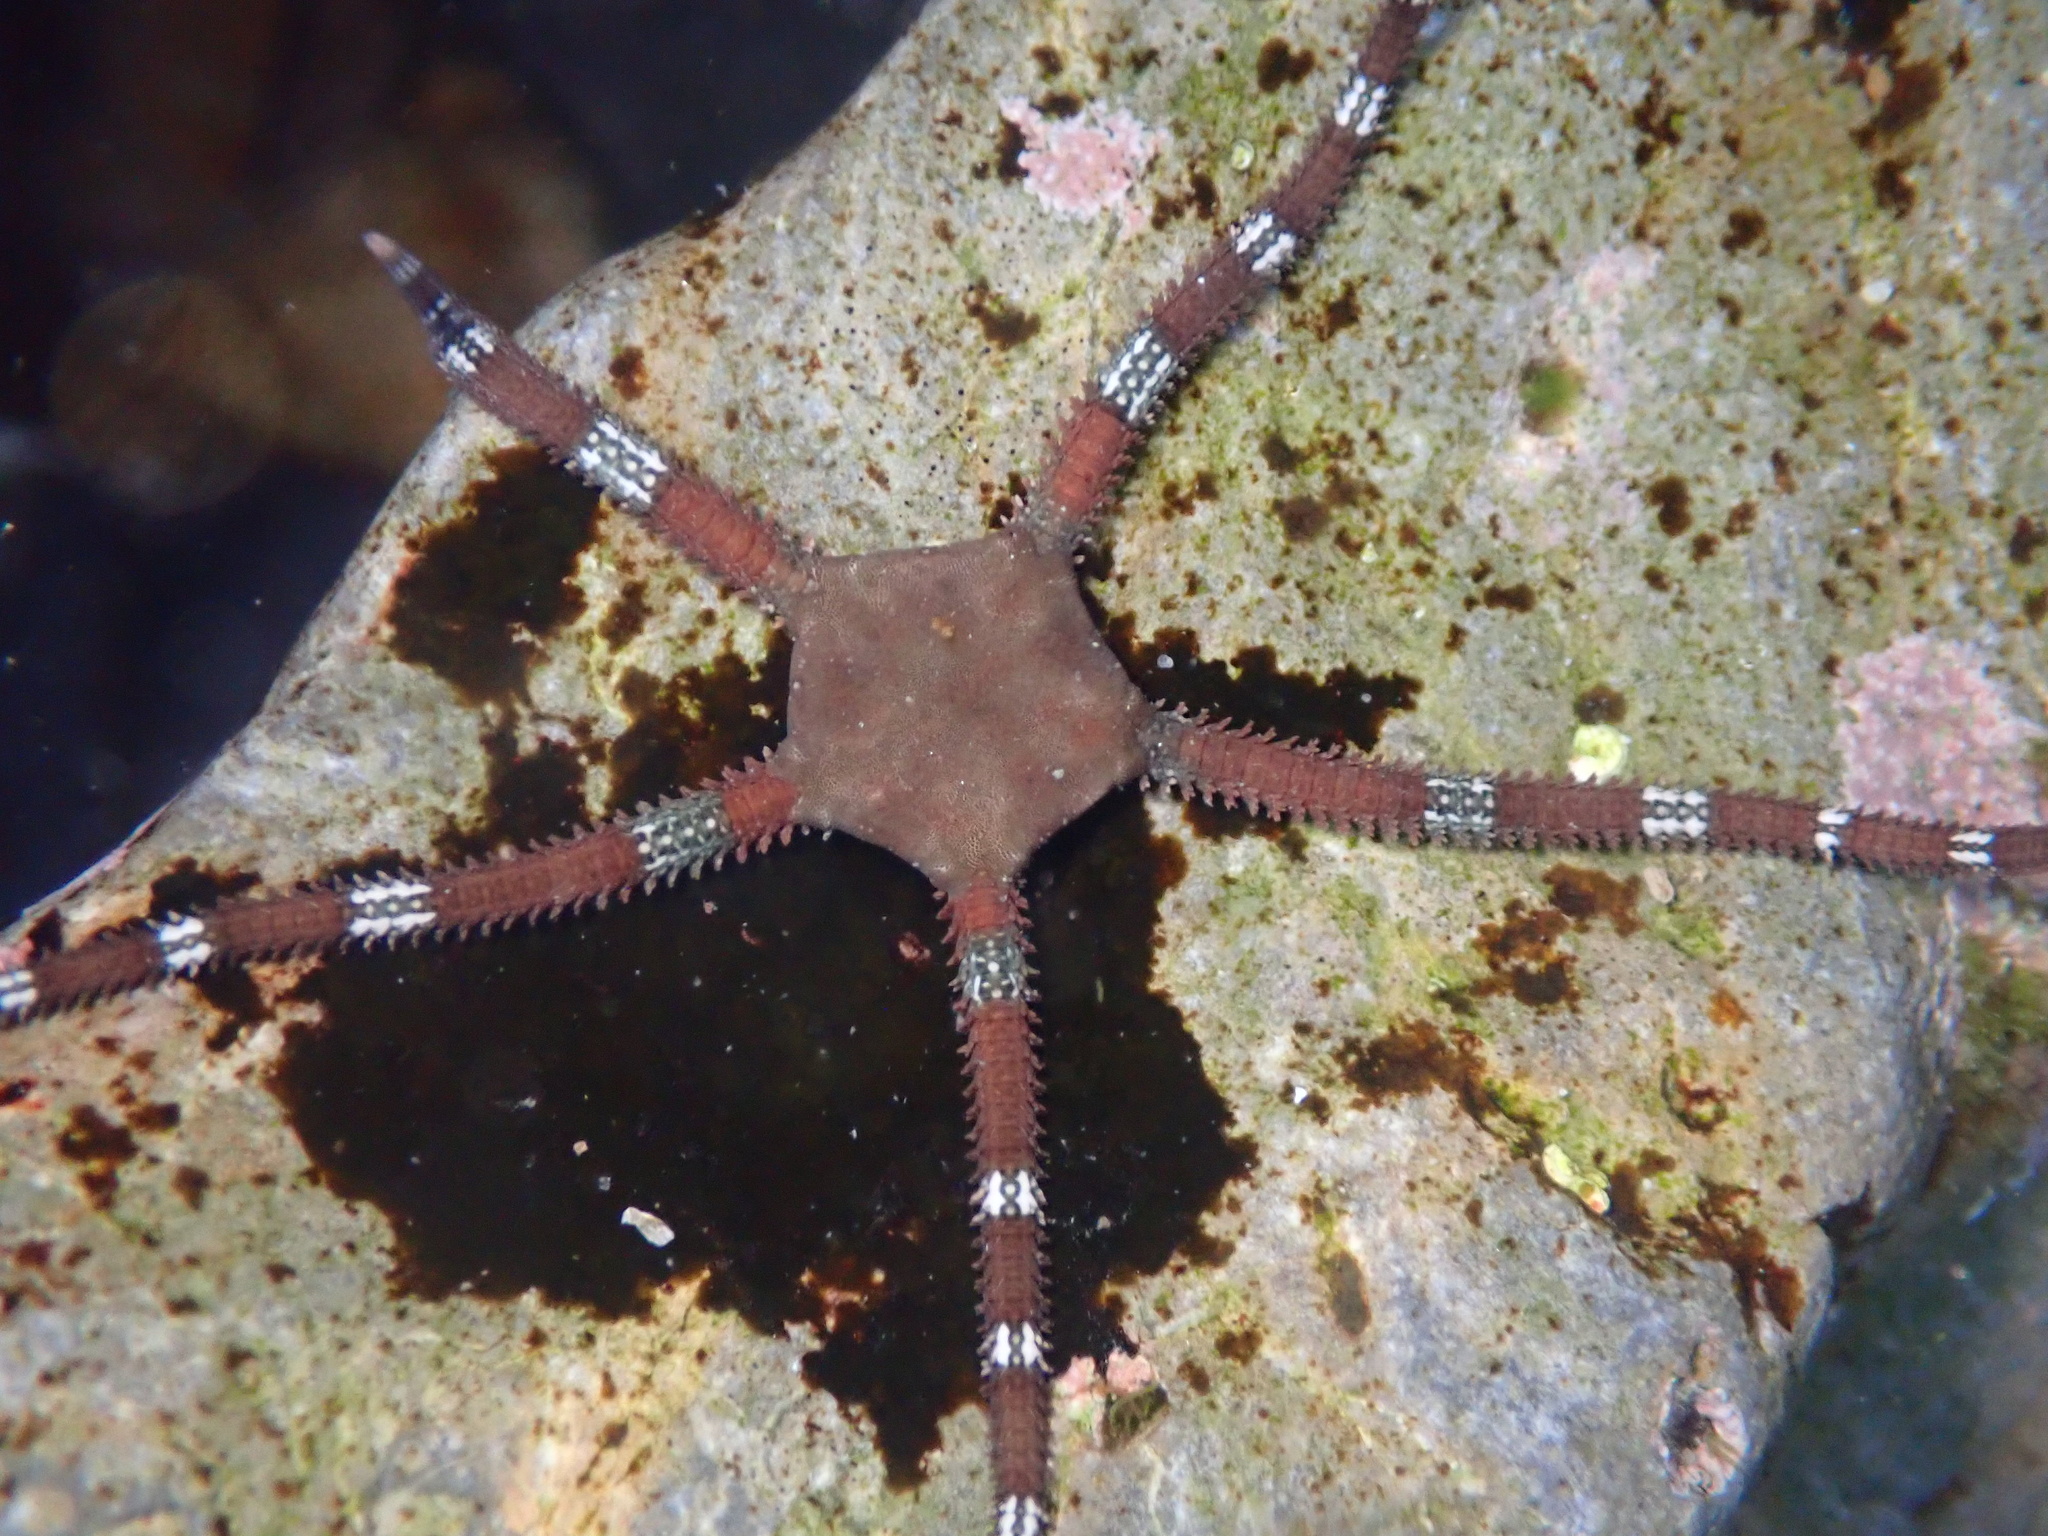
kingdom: Animalia
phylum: Echinodermata
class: Ophiuroidea
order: Ophiacanthida
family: Ophiodermatidae
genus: Ophioderma
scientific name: Ophioderma panamense
